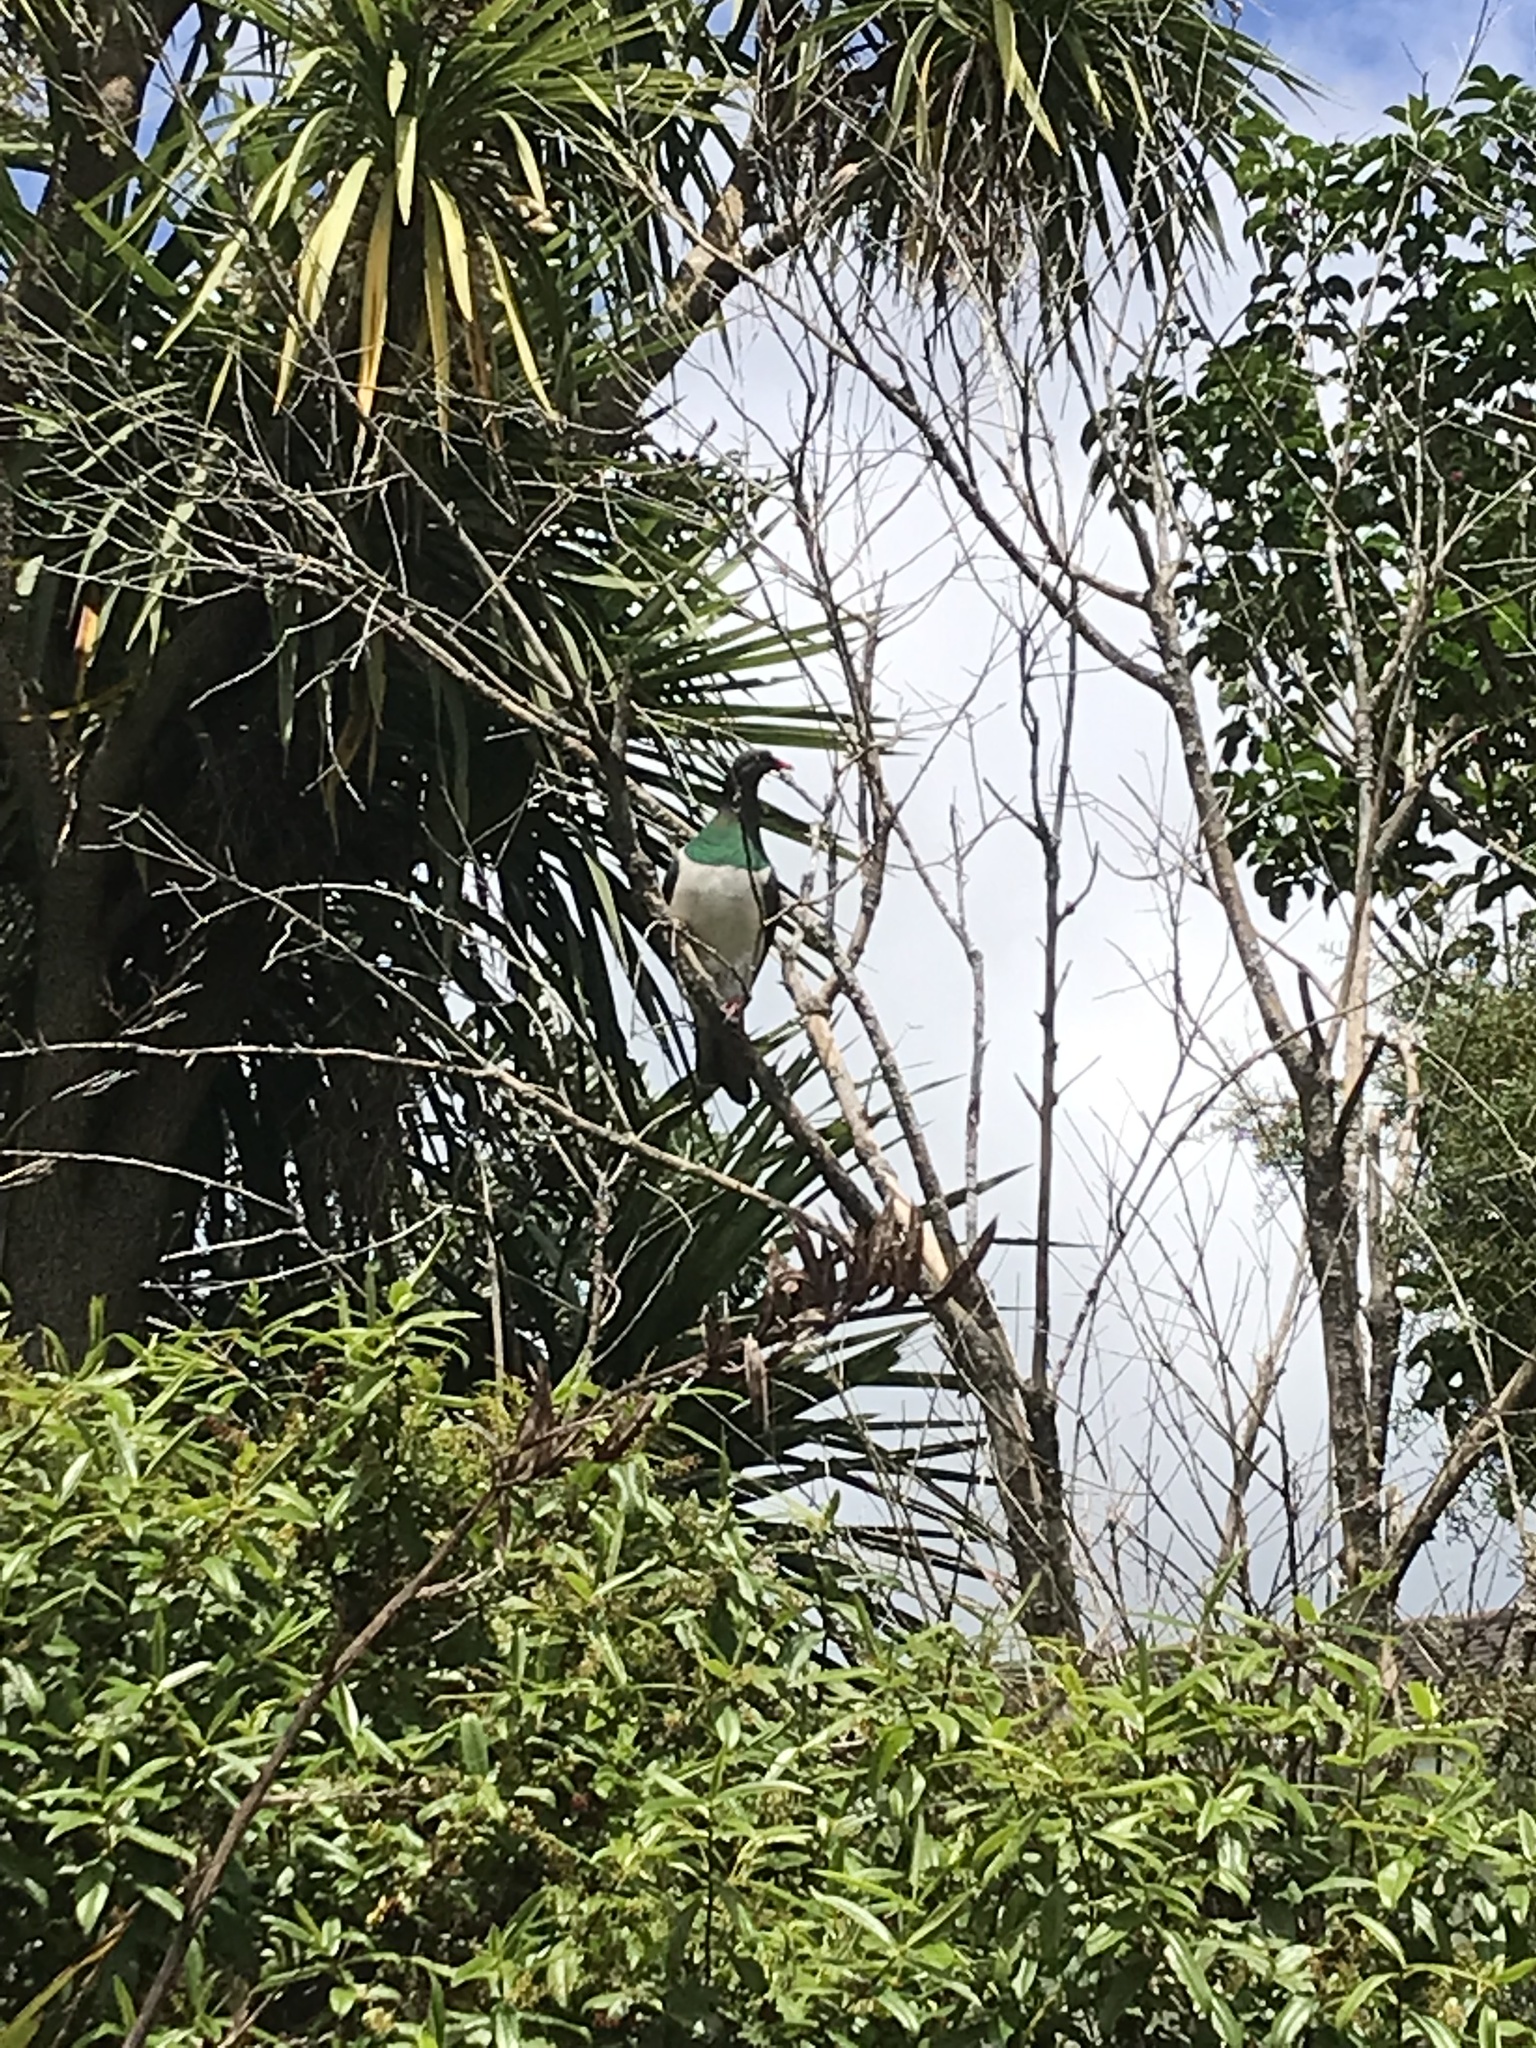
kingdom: Animalia
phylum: Chordata
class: Aves
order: Columbiformes
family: Columbidae
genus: Hemiphaga
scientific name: Hemiphaga novaeseelandiae
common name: New zealand pigeon
